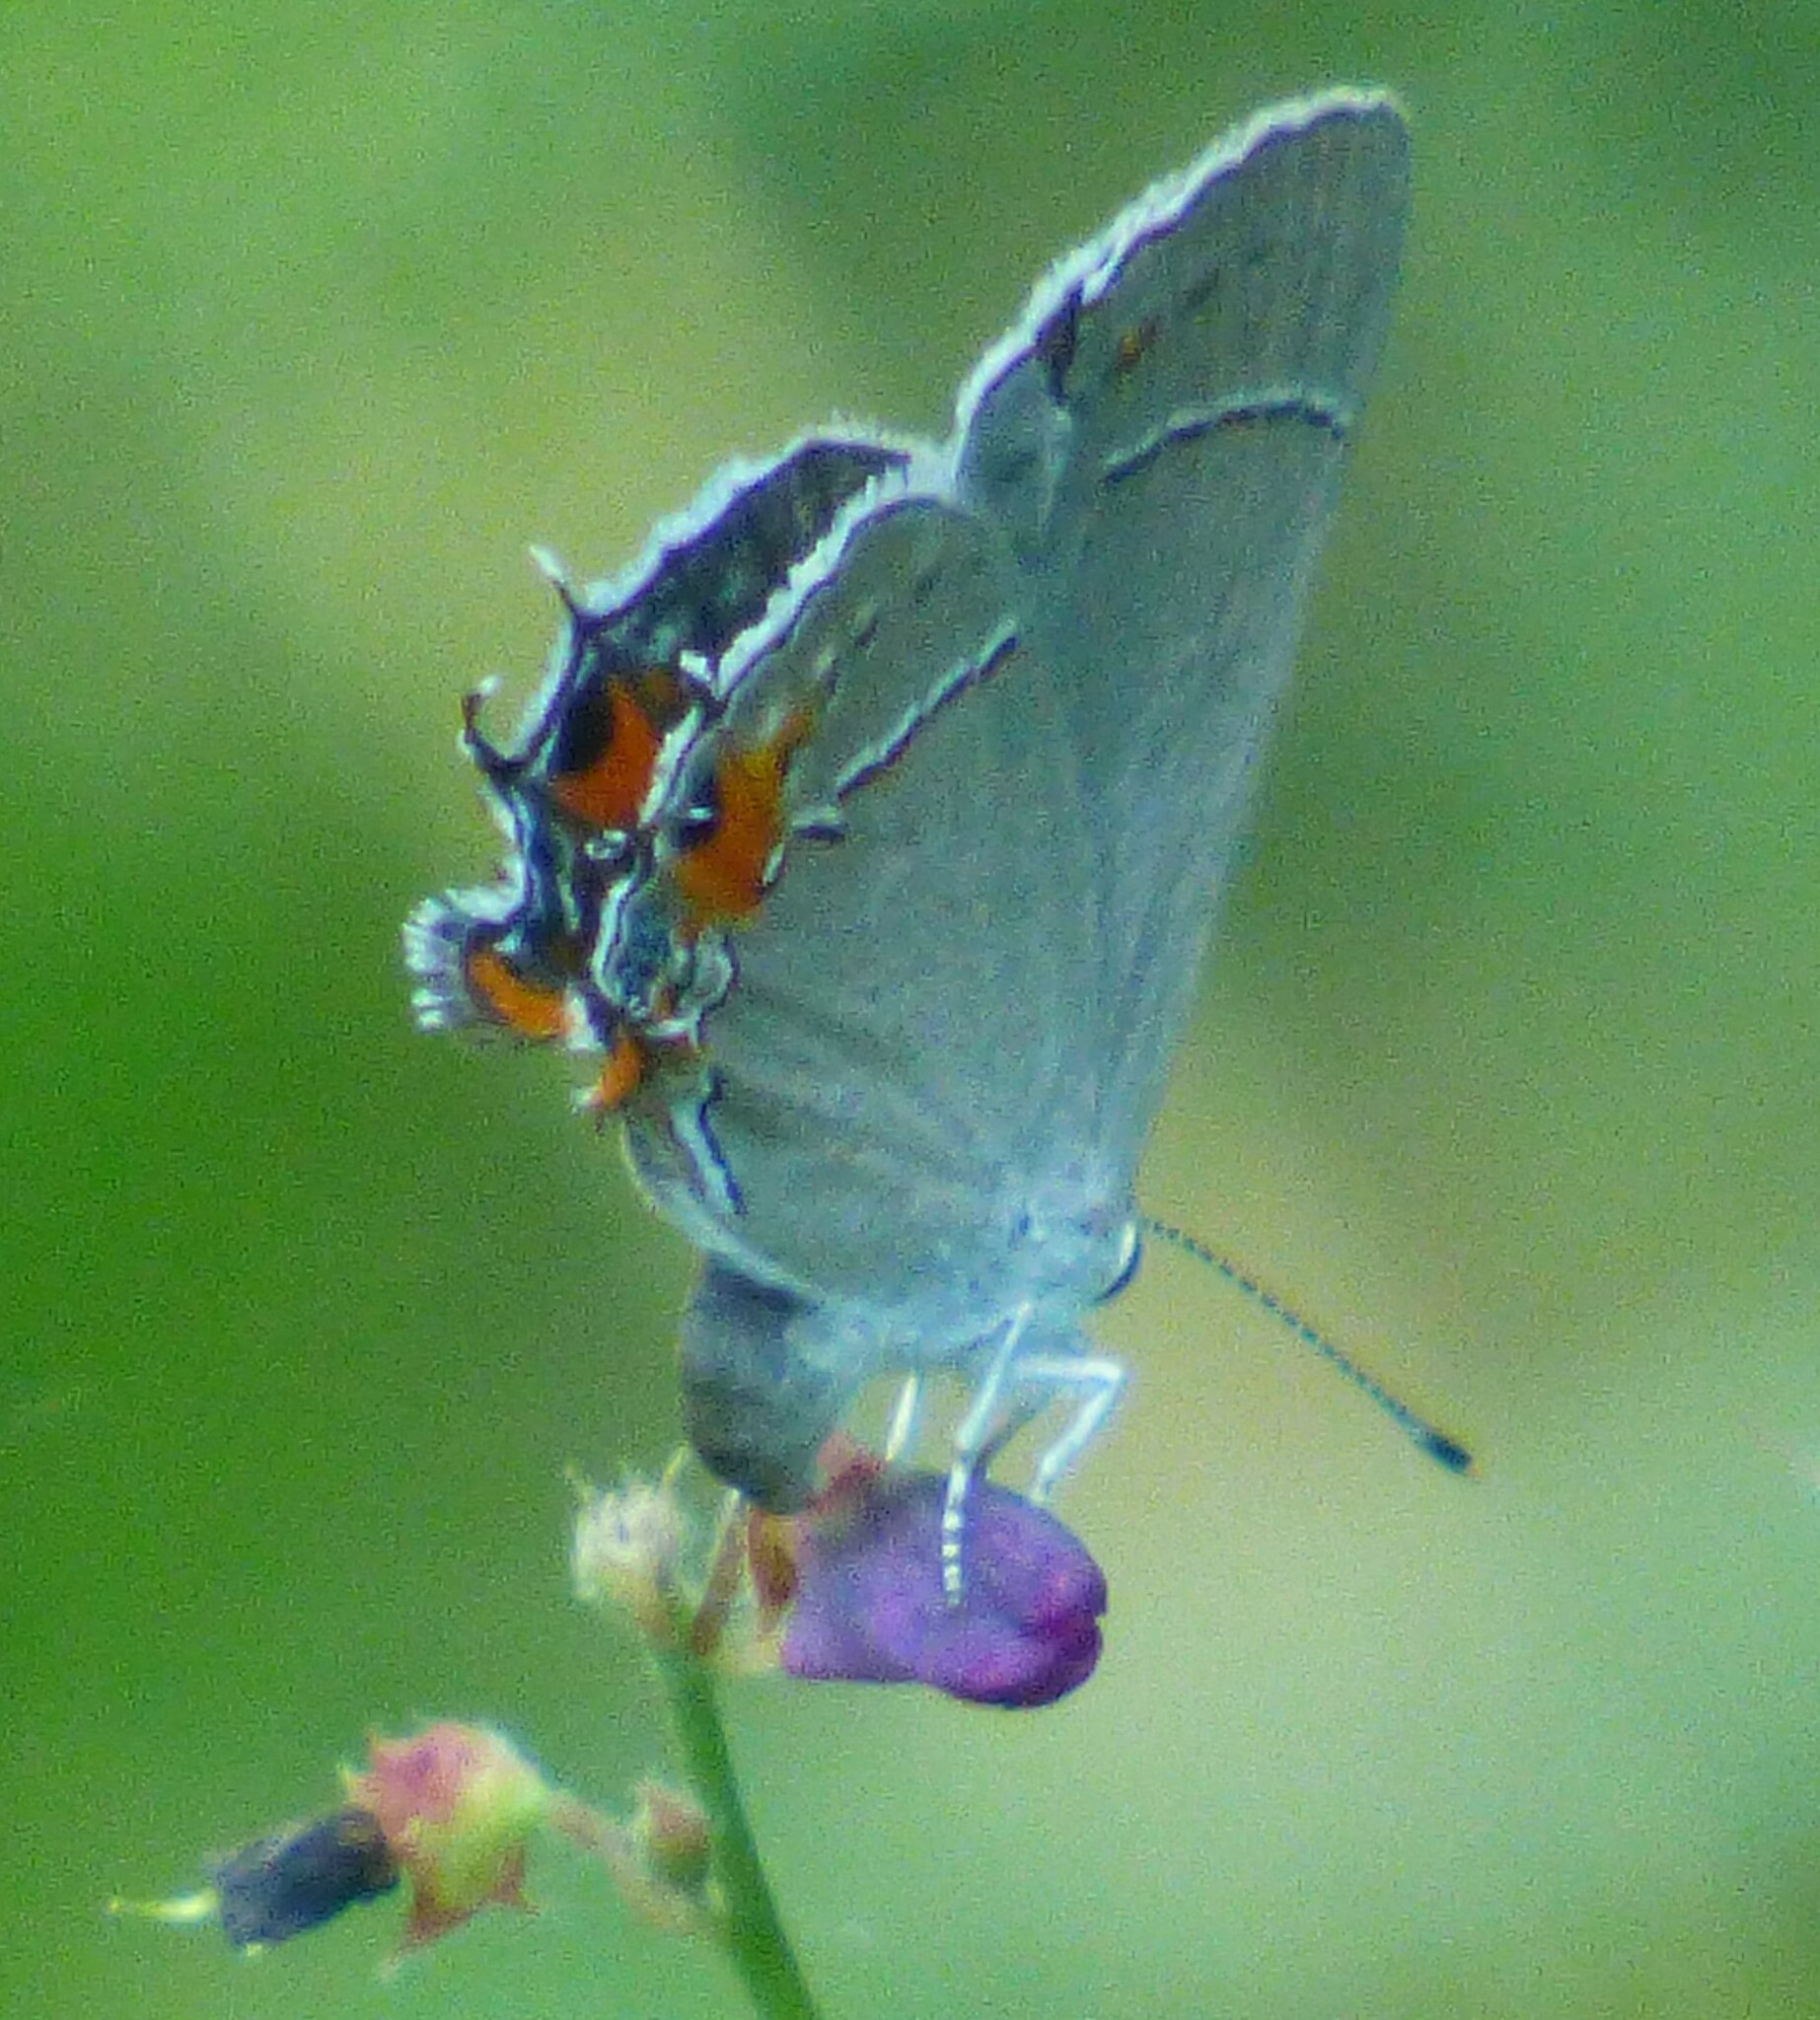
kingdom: Animalia
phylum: Arthropoda
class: Insecta
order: Lepidoptera
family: Lycaenidae
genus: Strymon
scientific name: Strymon melinus
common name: Gray hairstreak
